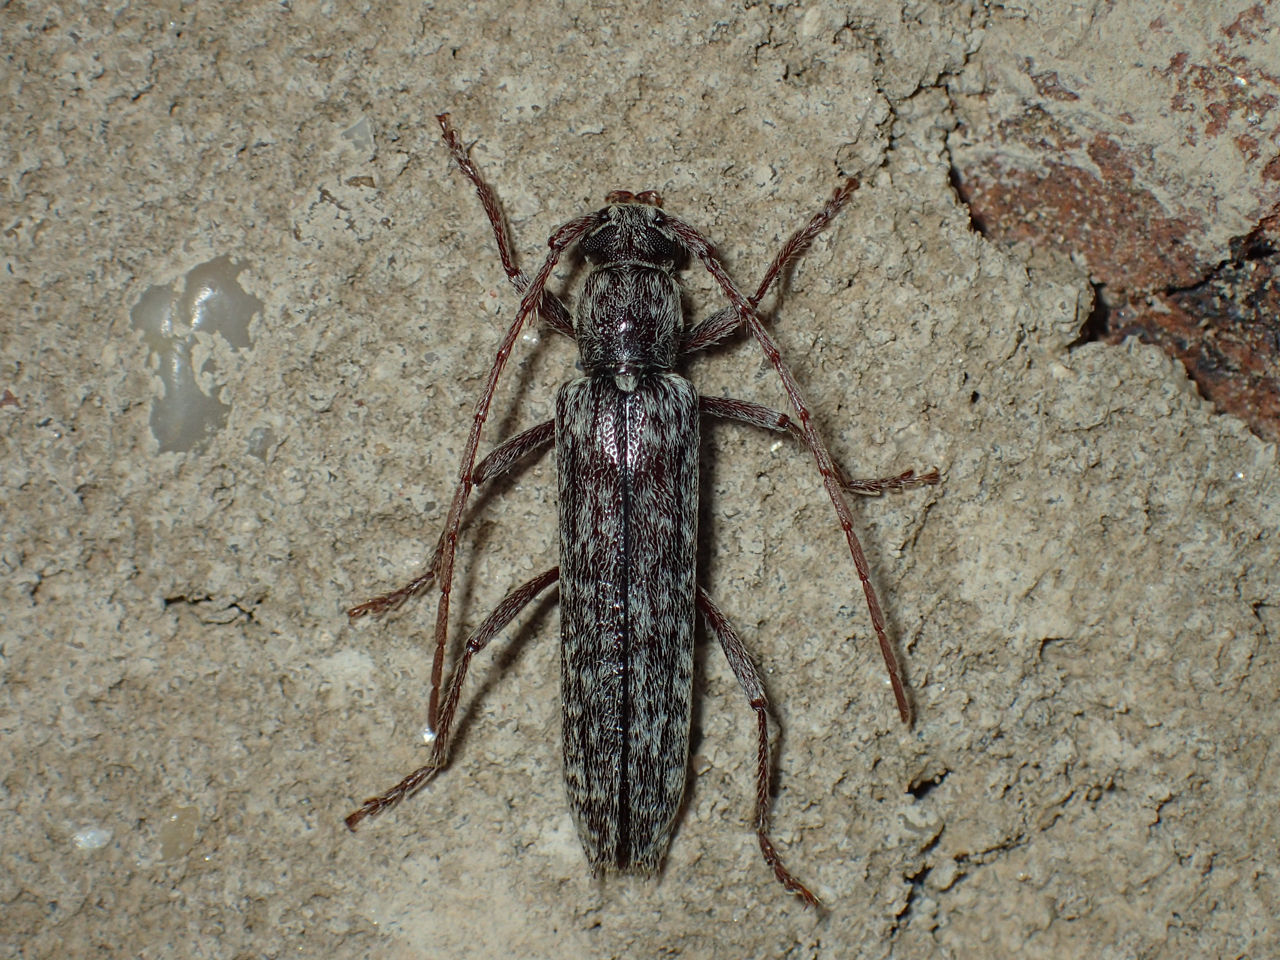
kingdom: Animalia
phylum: Arthropoda
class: Insecta
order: Coleoptera
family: Cerambycidae
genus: Anelaphus
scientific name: Anelaphus villosus
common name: Twig pruner
